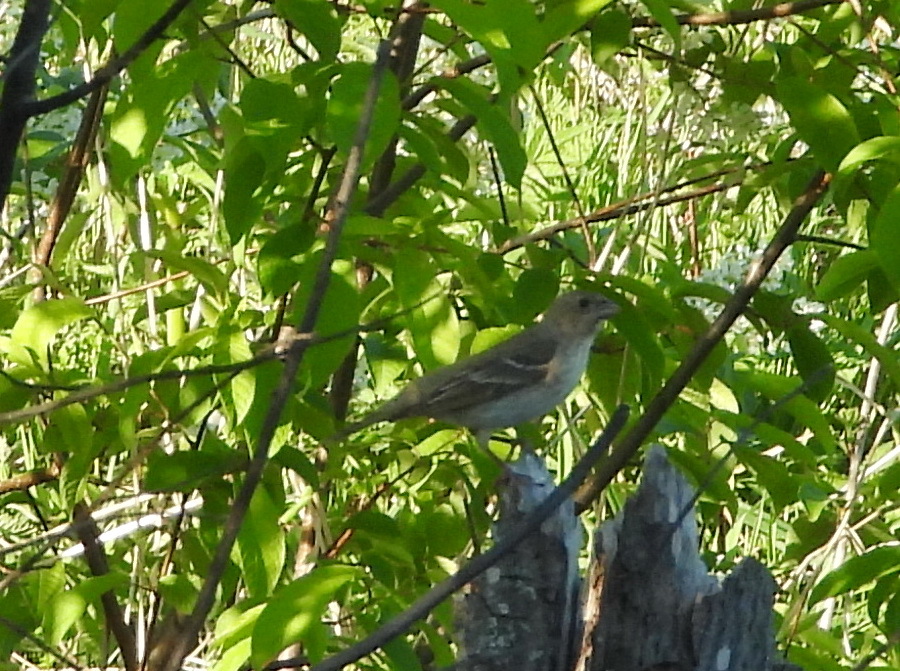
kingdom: Animalia
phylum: Chordata
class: Aves
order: Passeriformes
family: Fringillidae
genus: Carpodacus
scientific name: Carpodacus erythrinus
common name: Common rosefinch
